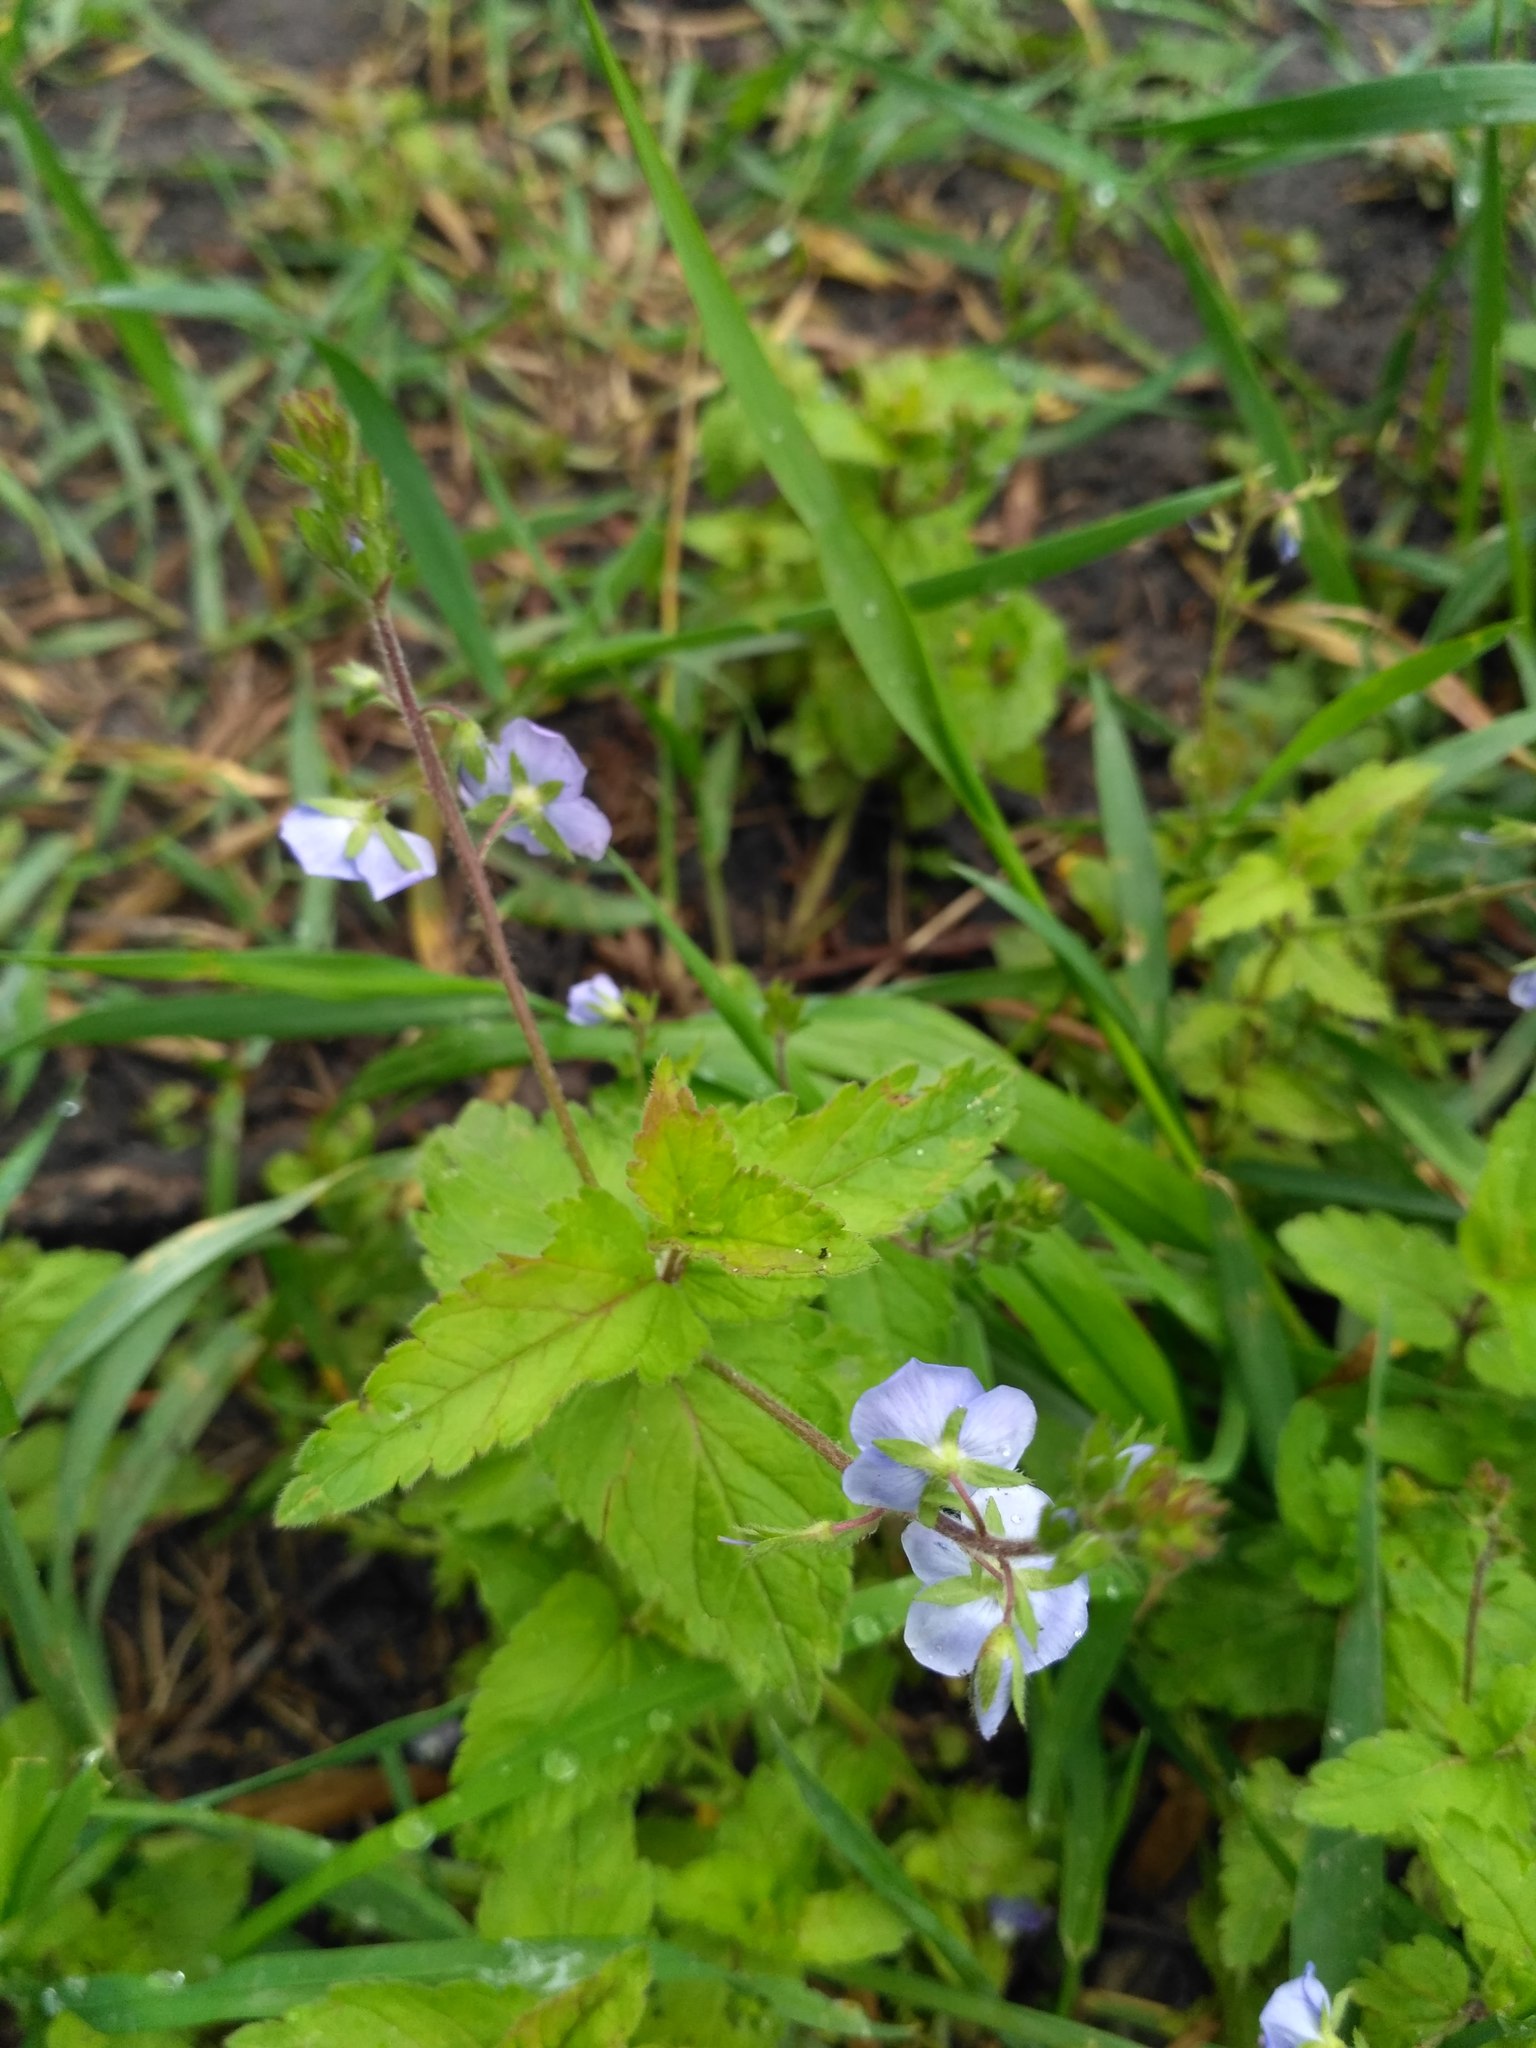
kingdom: Plantae
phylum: Tracheophyta
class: Magnoliopsida
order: Lamiales
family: Plantaginaceae
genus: Veronica
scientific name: Veronica chamaedrys
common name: Germander speedwell
